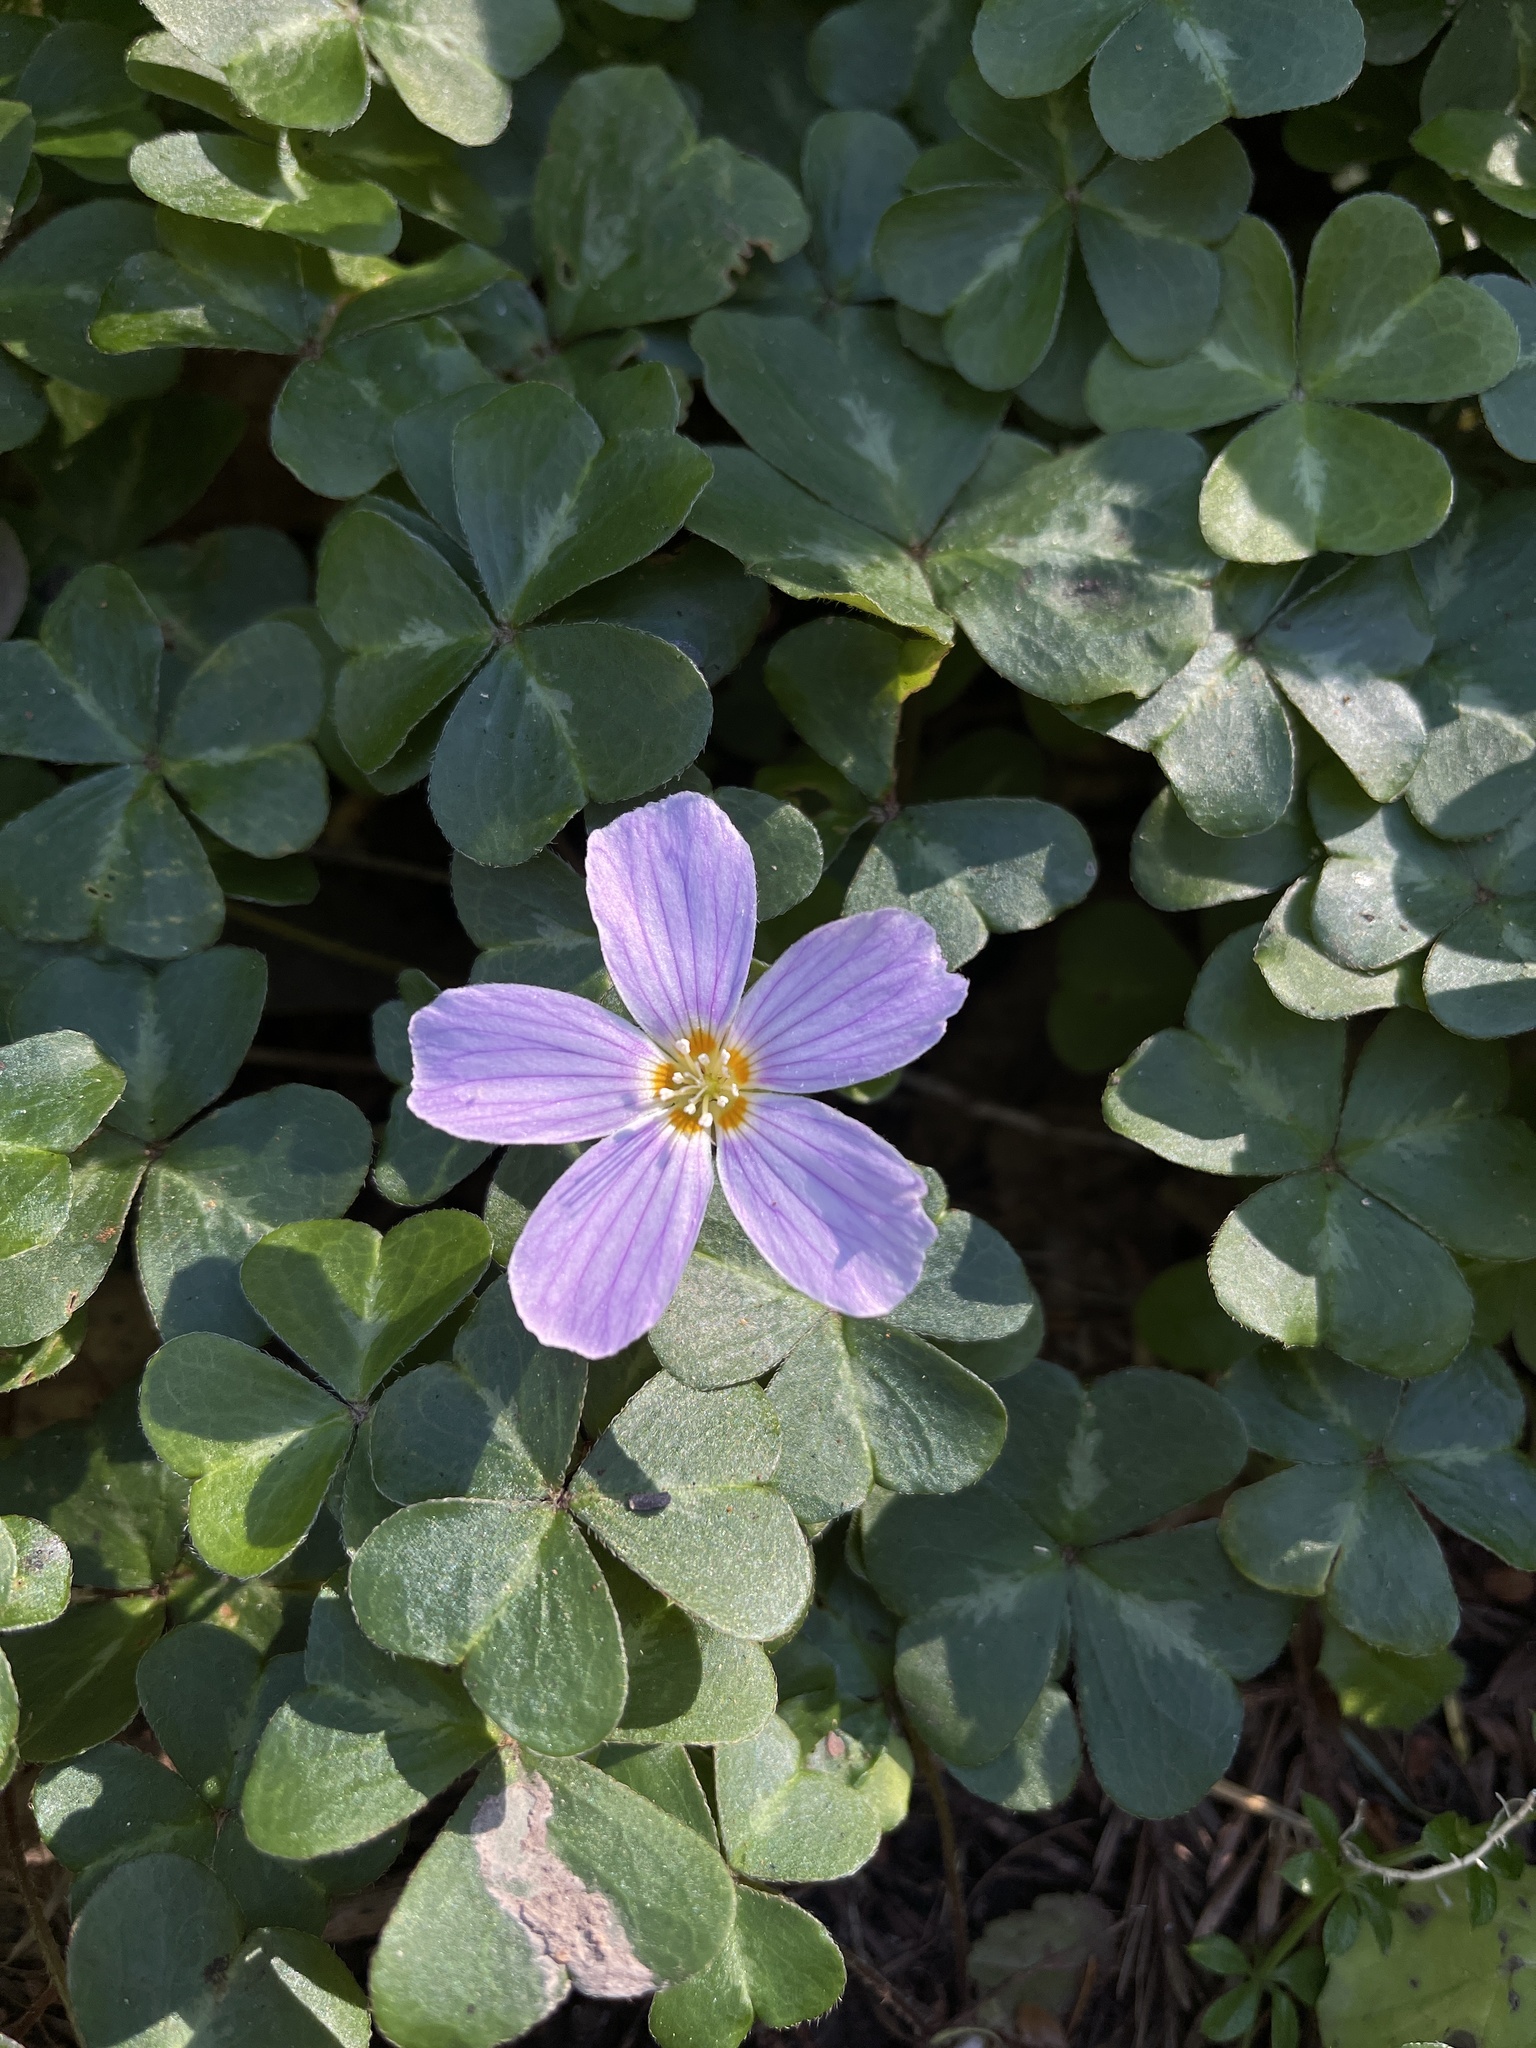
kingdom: Plantae
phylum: Tracheophyta
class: Magnoliopsida
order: Oxalidales
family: Oxalidaceae
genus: Oxalis
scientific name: Oxalis oregana
